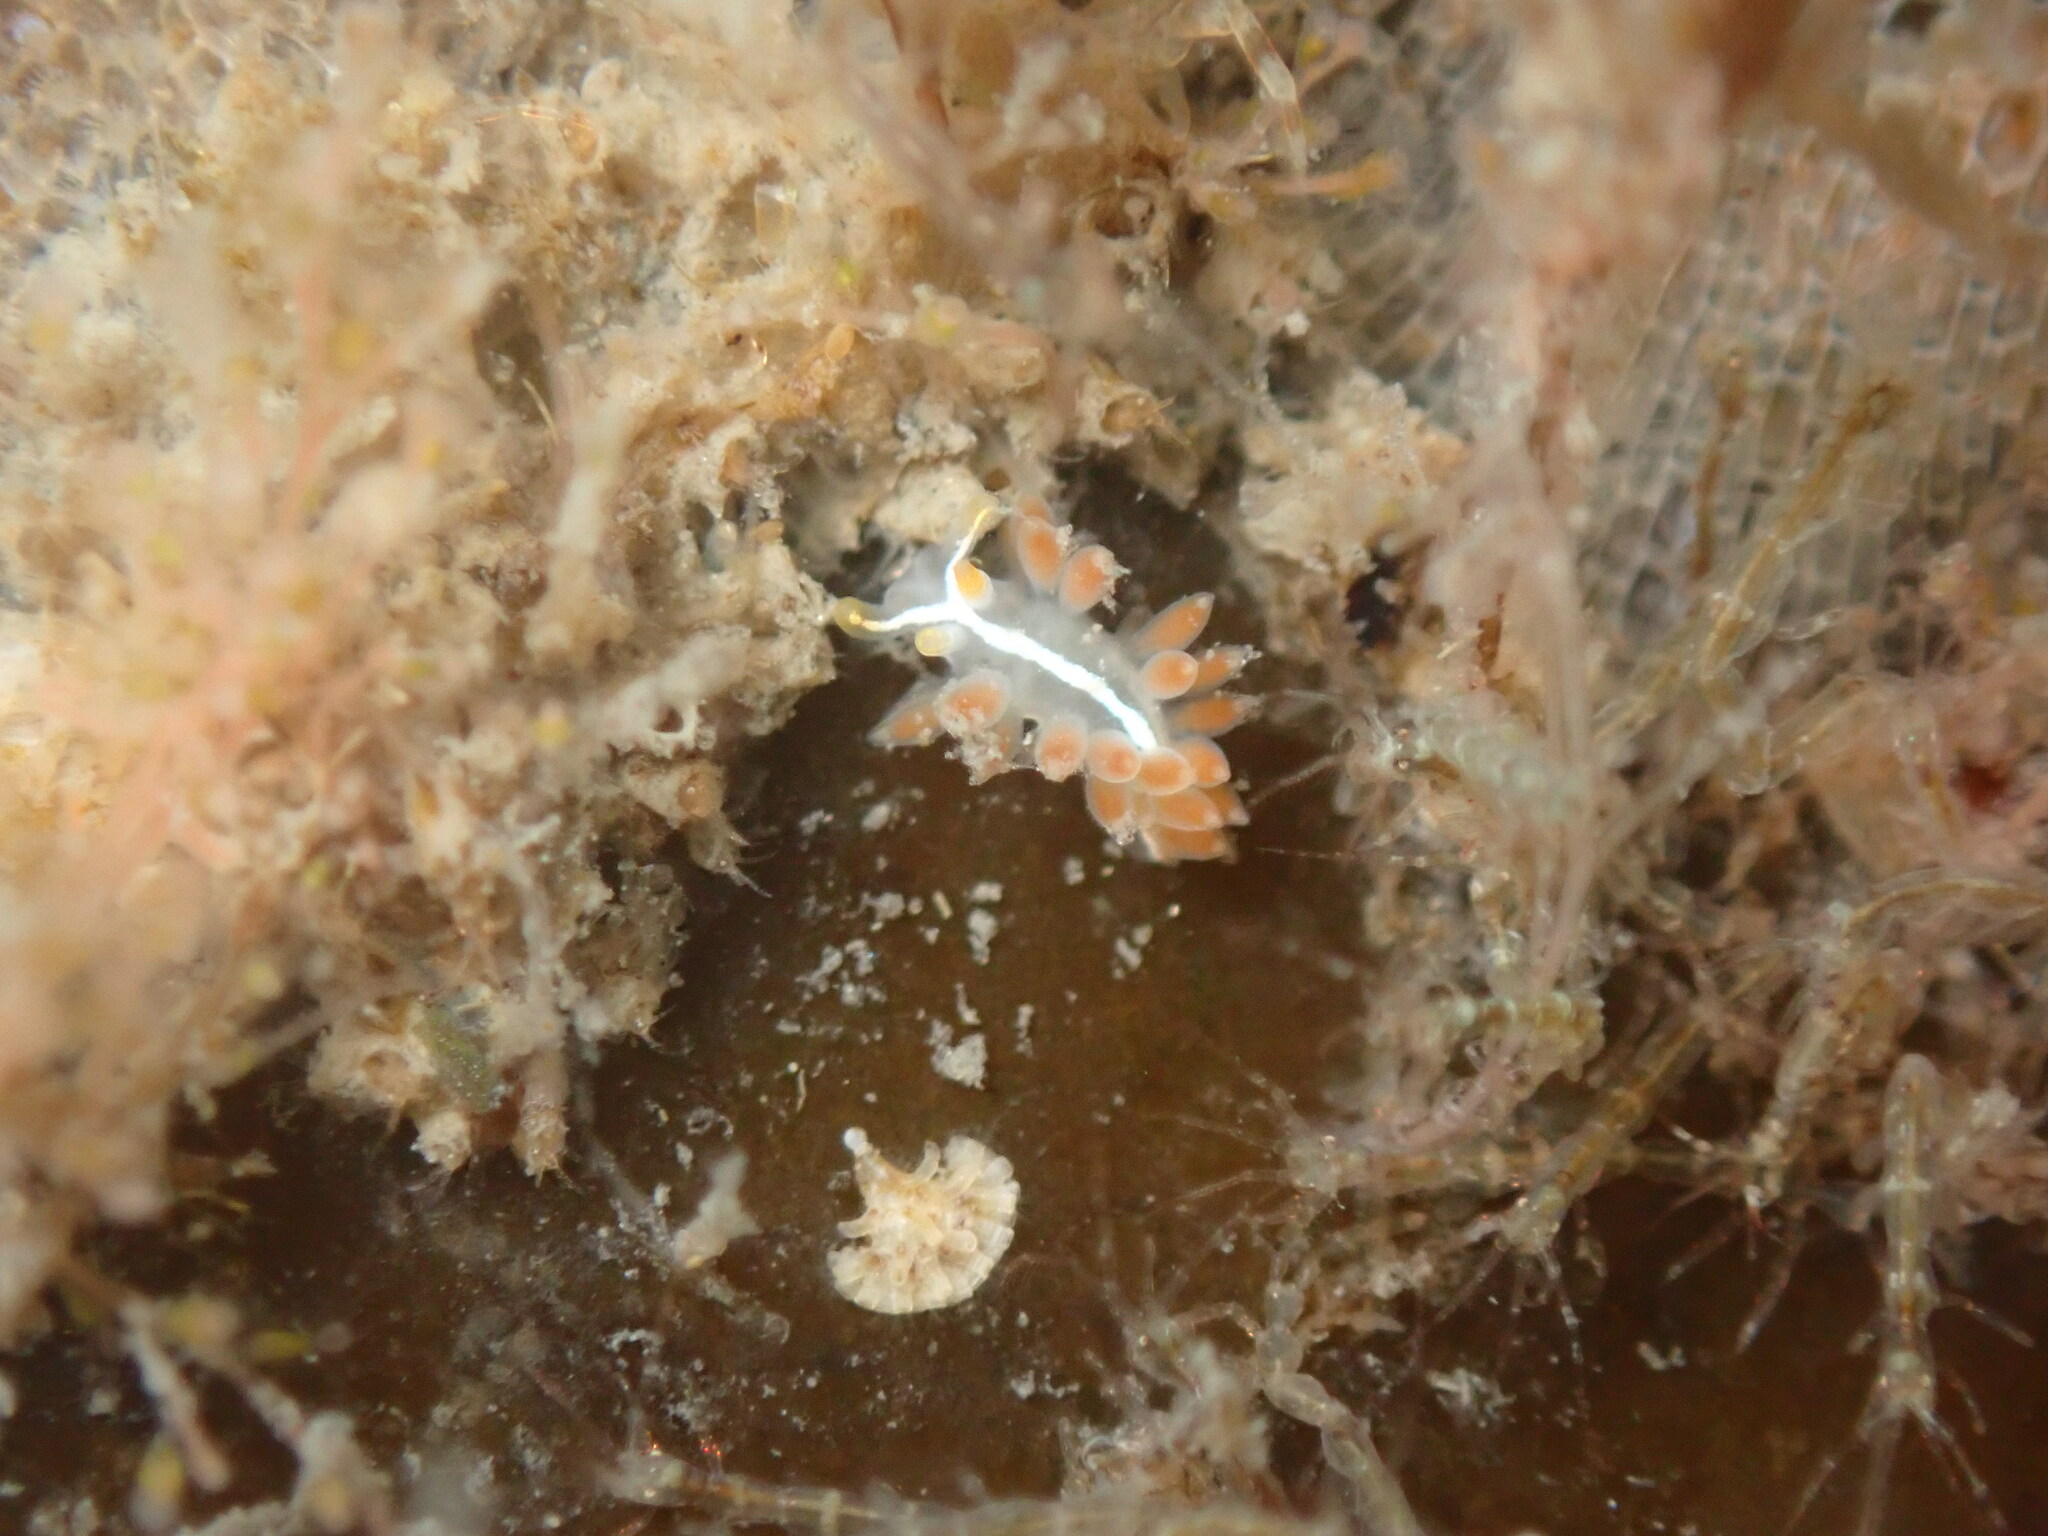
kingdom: Animalia
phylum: Mollusca
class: Gastropoda
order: Nudibranchia
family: Coryphellidae
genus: Coryphella
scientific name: Coryphella trilineata
